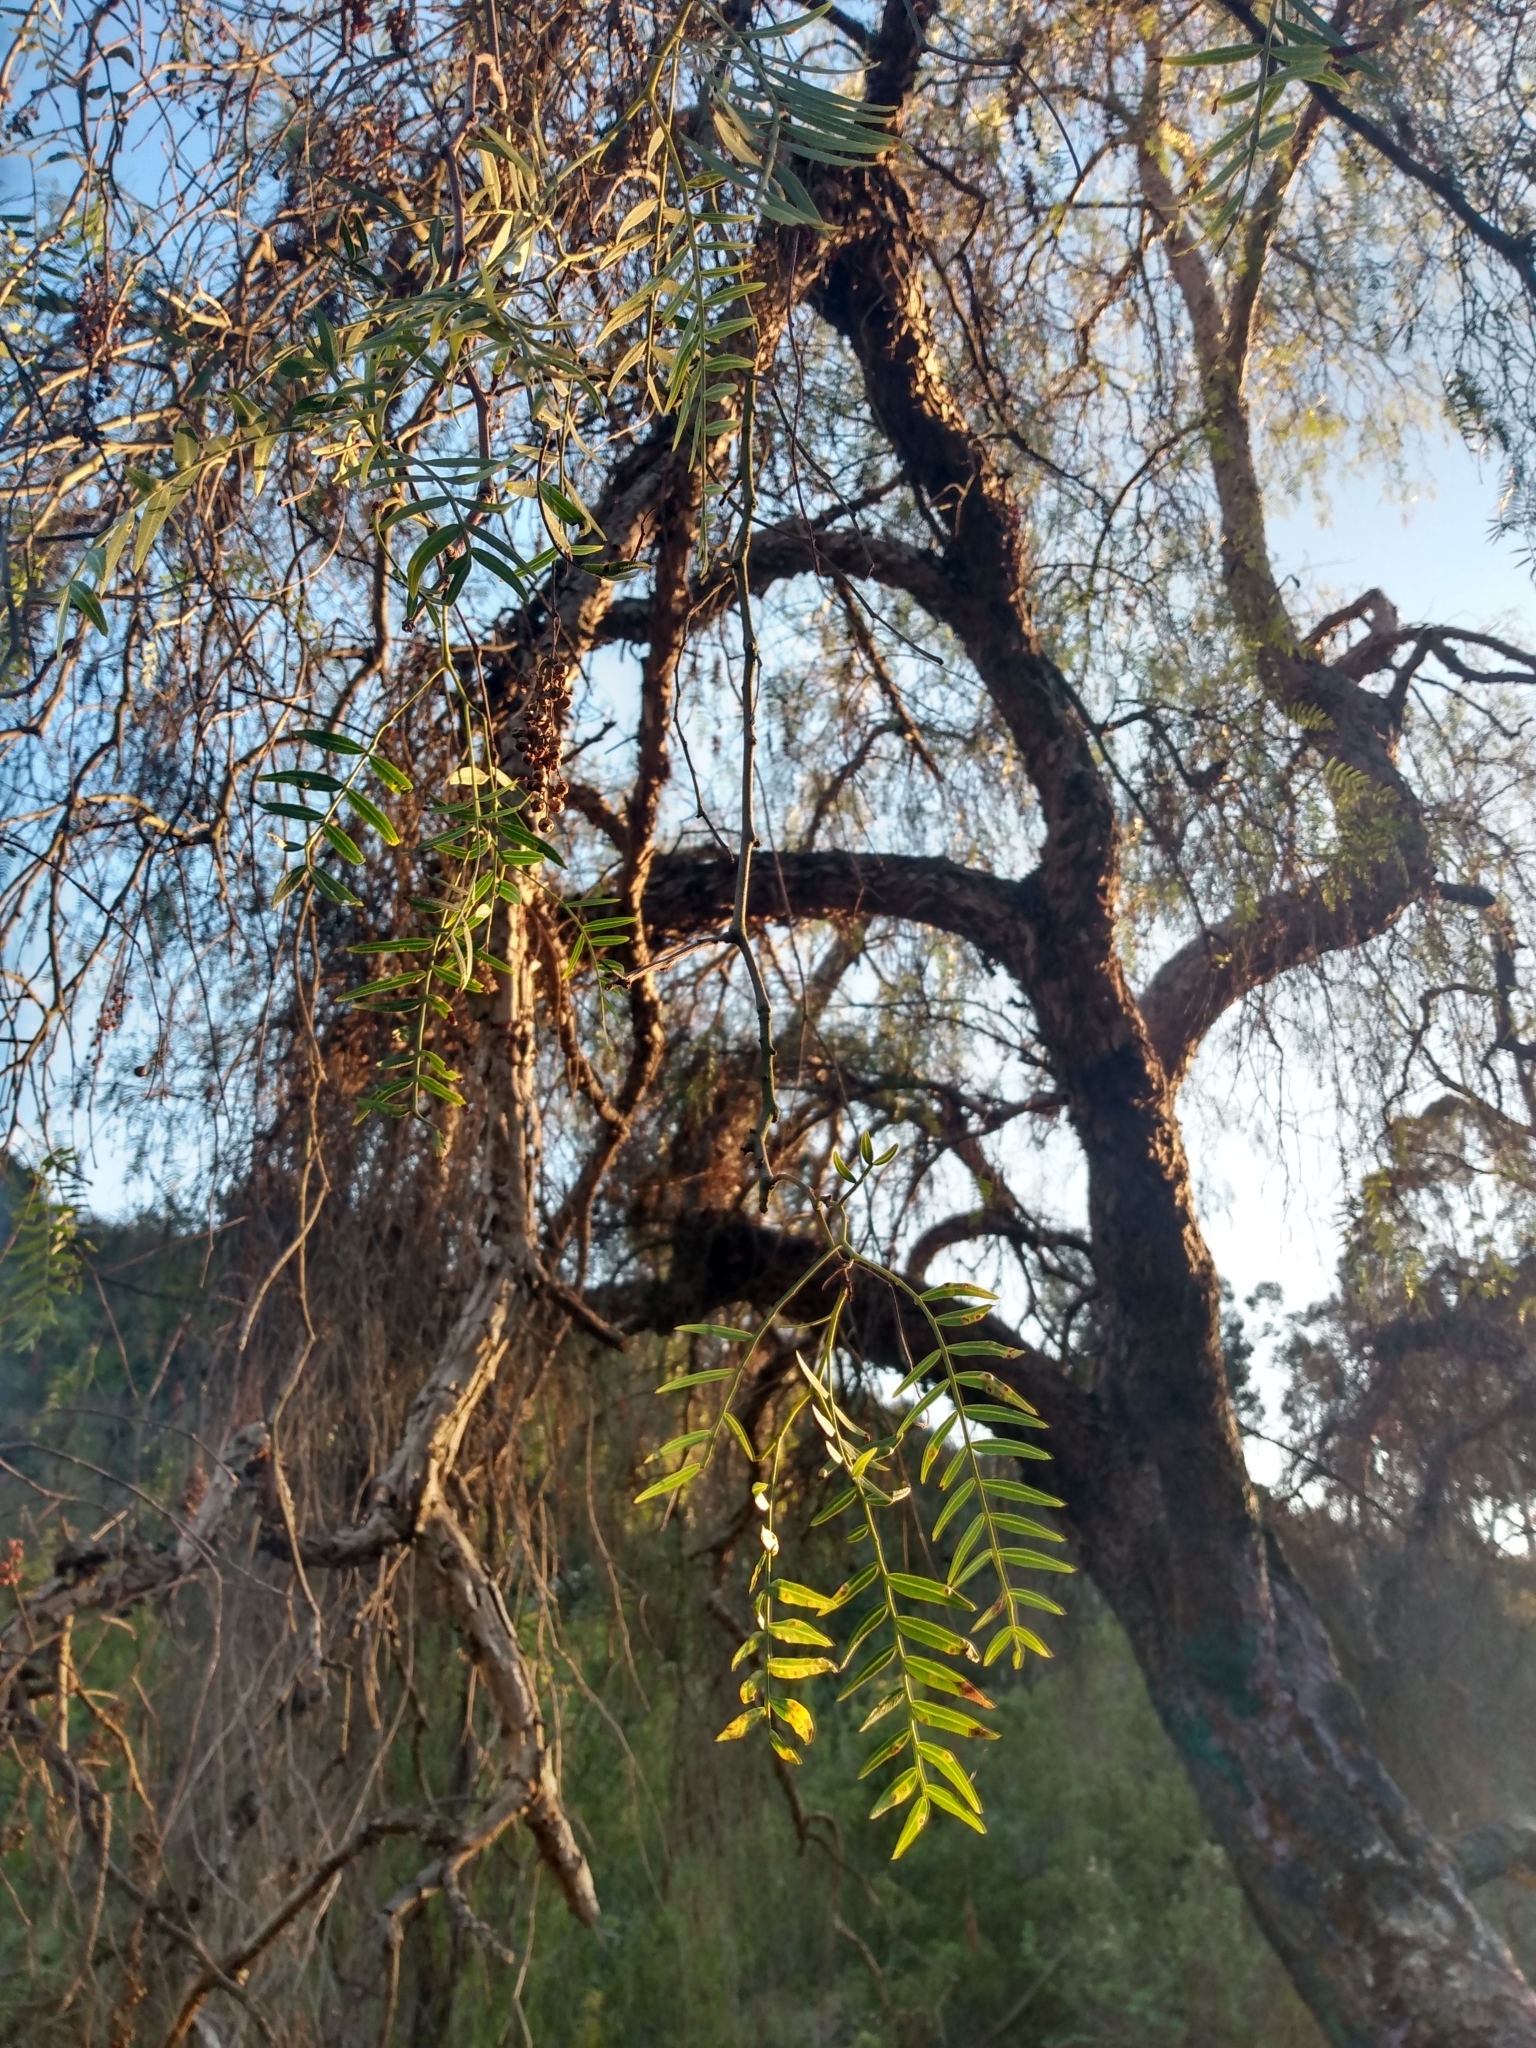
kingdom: Plantae
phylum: Tracheophyta
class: Magnoliopsida
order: Sapindales
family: Anacardiaceae
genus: Schinus
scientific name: Schinus molle
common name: Peruvian peppertree
